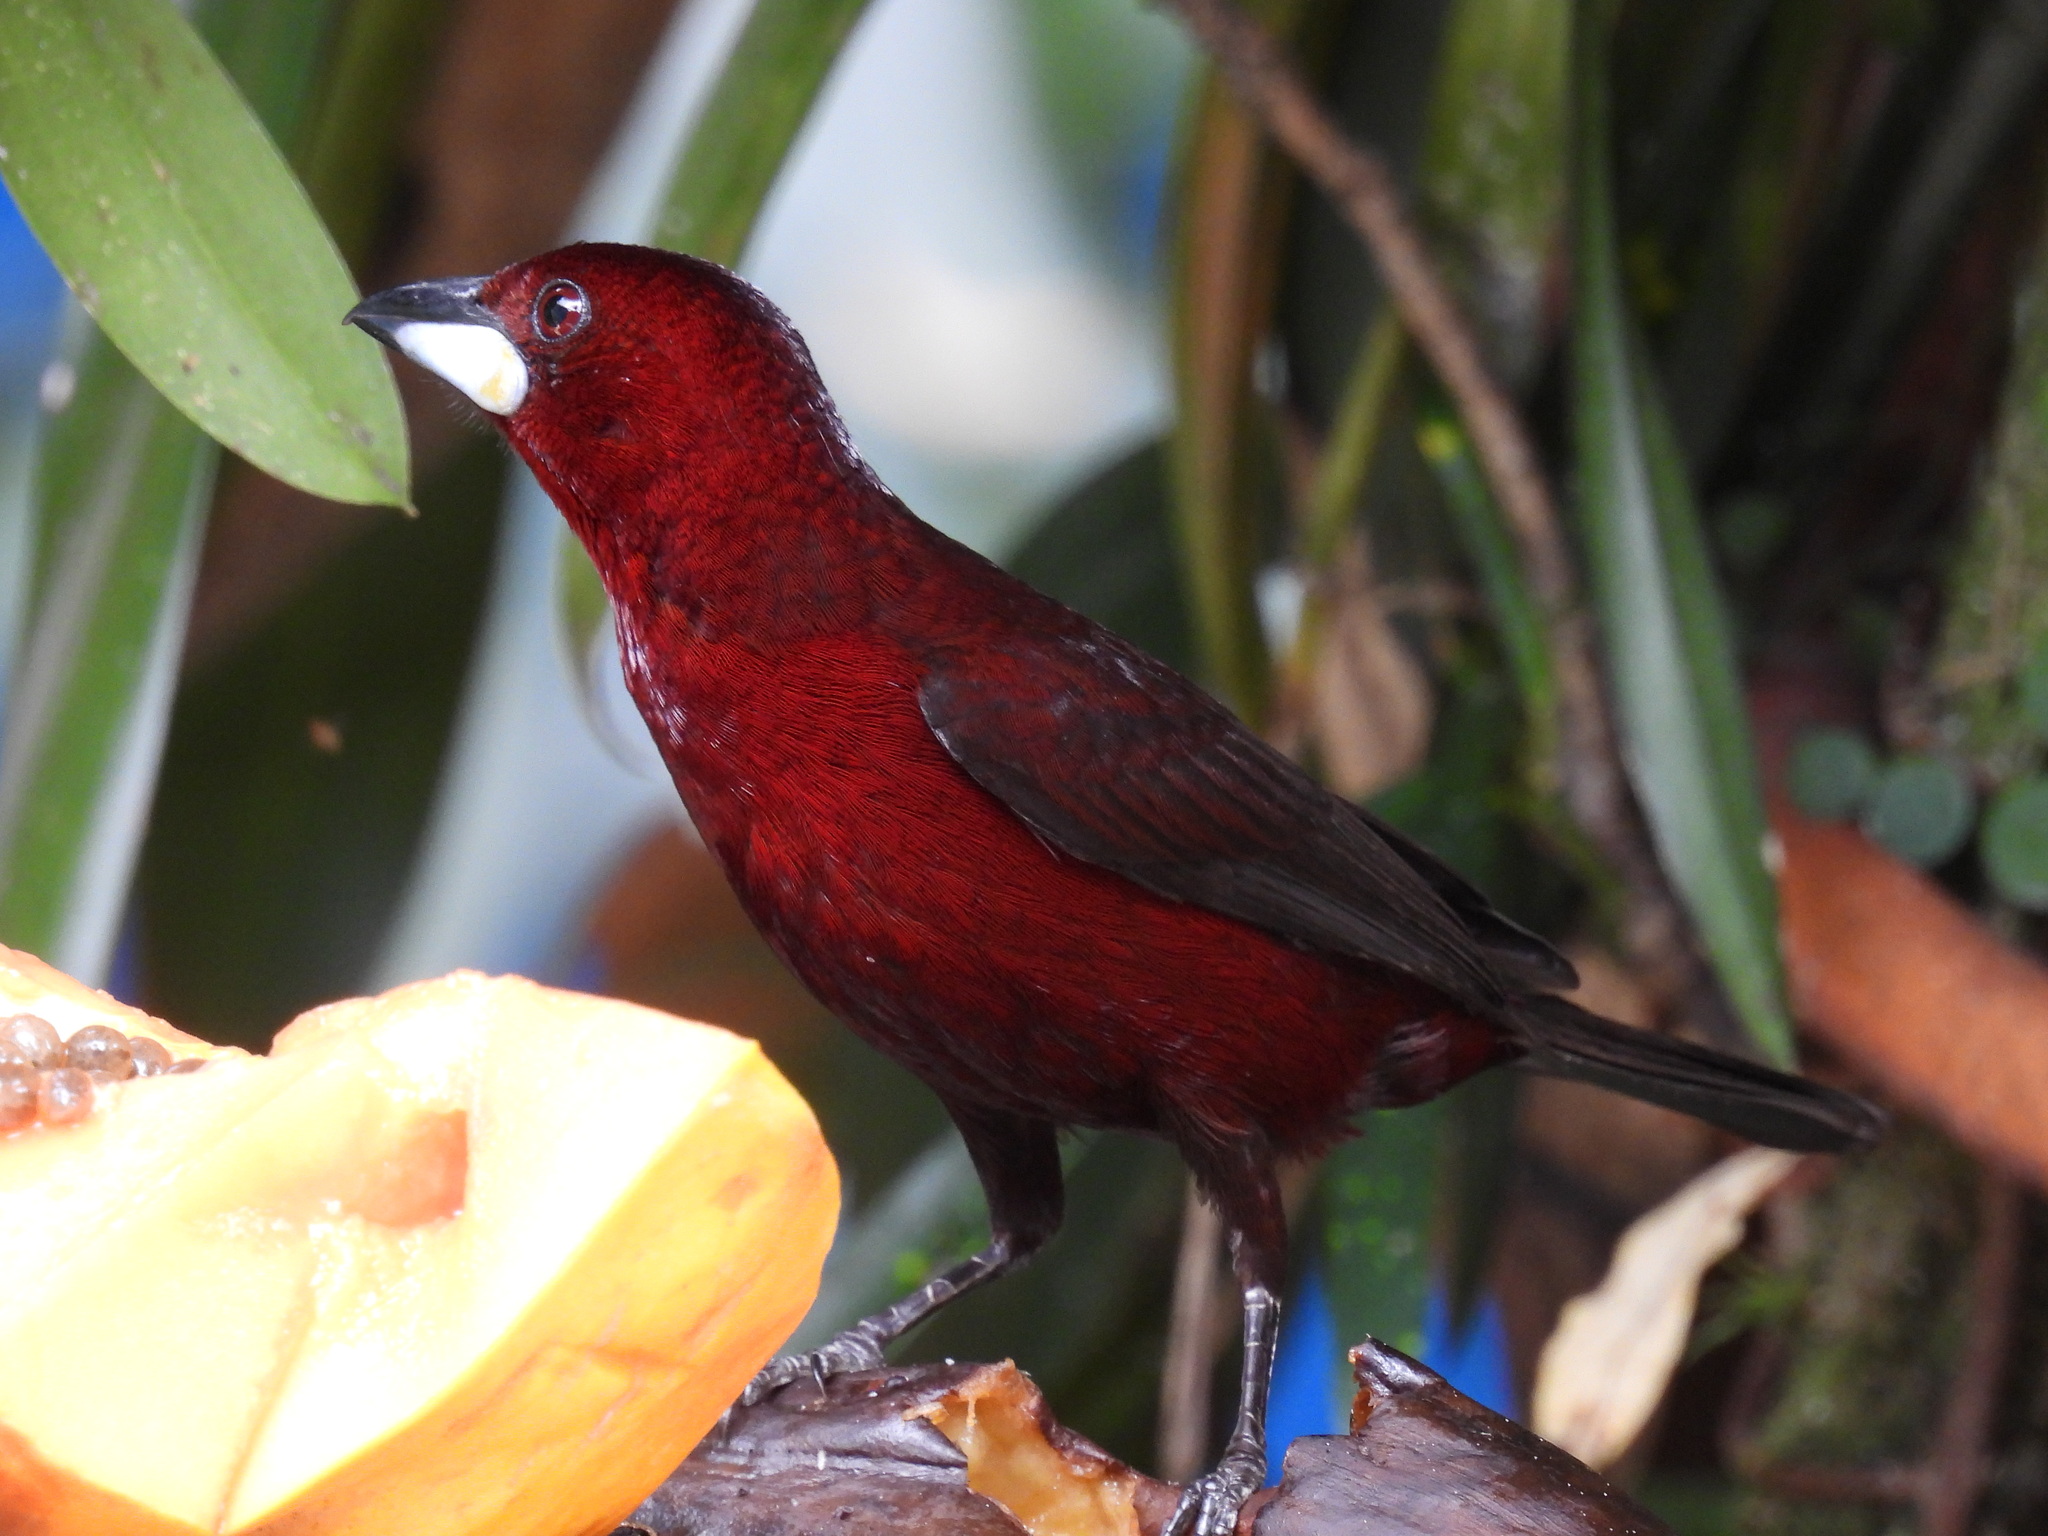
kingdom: Animalia
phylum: Chordata
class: Aves
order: Passeriformes
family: Thraupidae
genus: Ramphocelus
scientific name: Ramphocelus carbo
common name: Silver-beaked tanager
